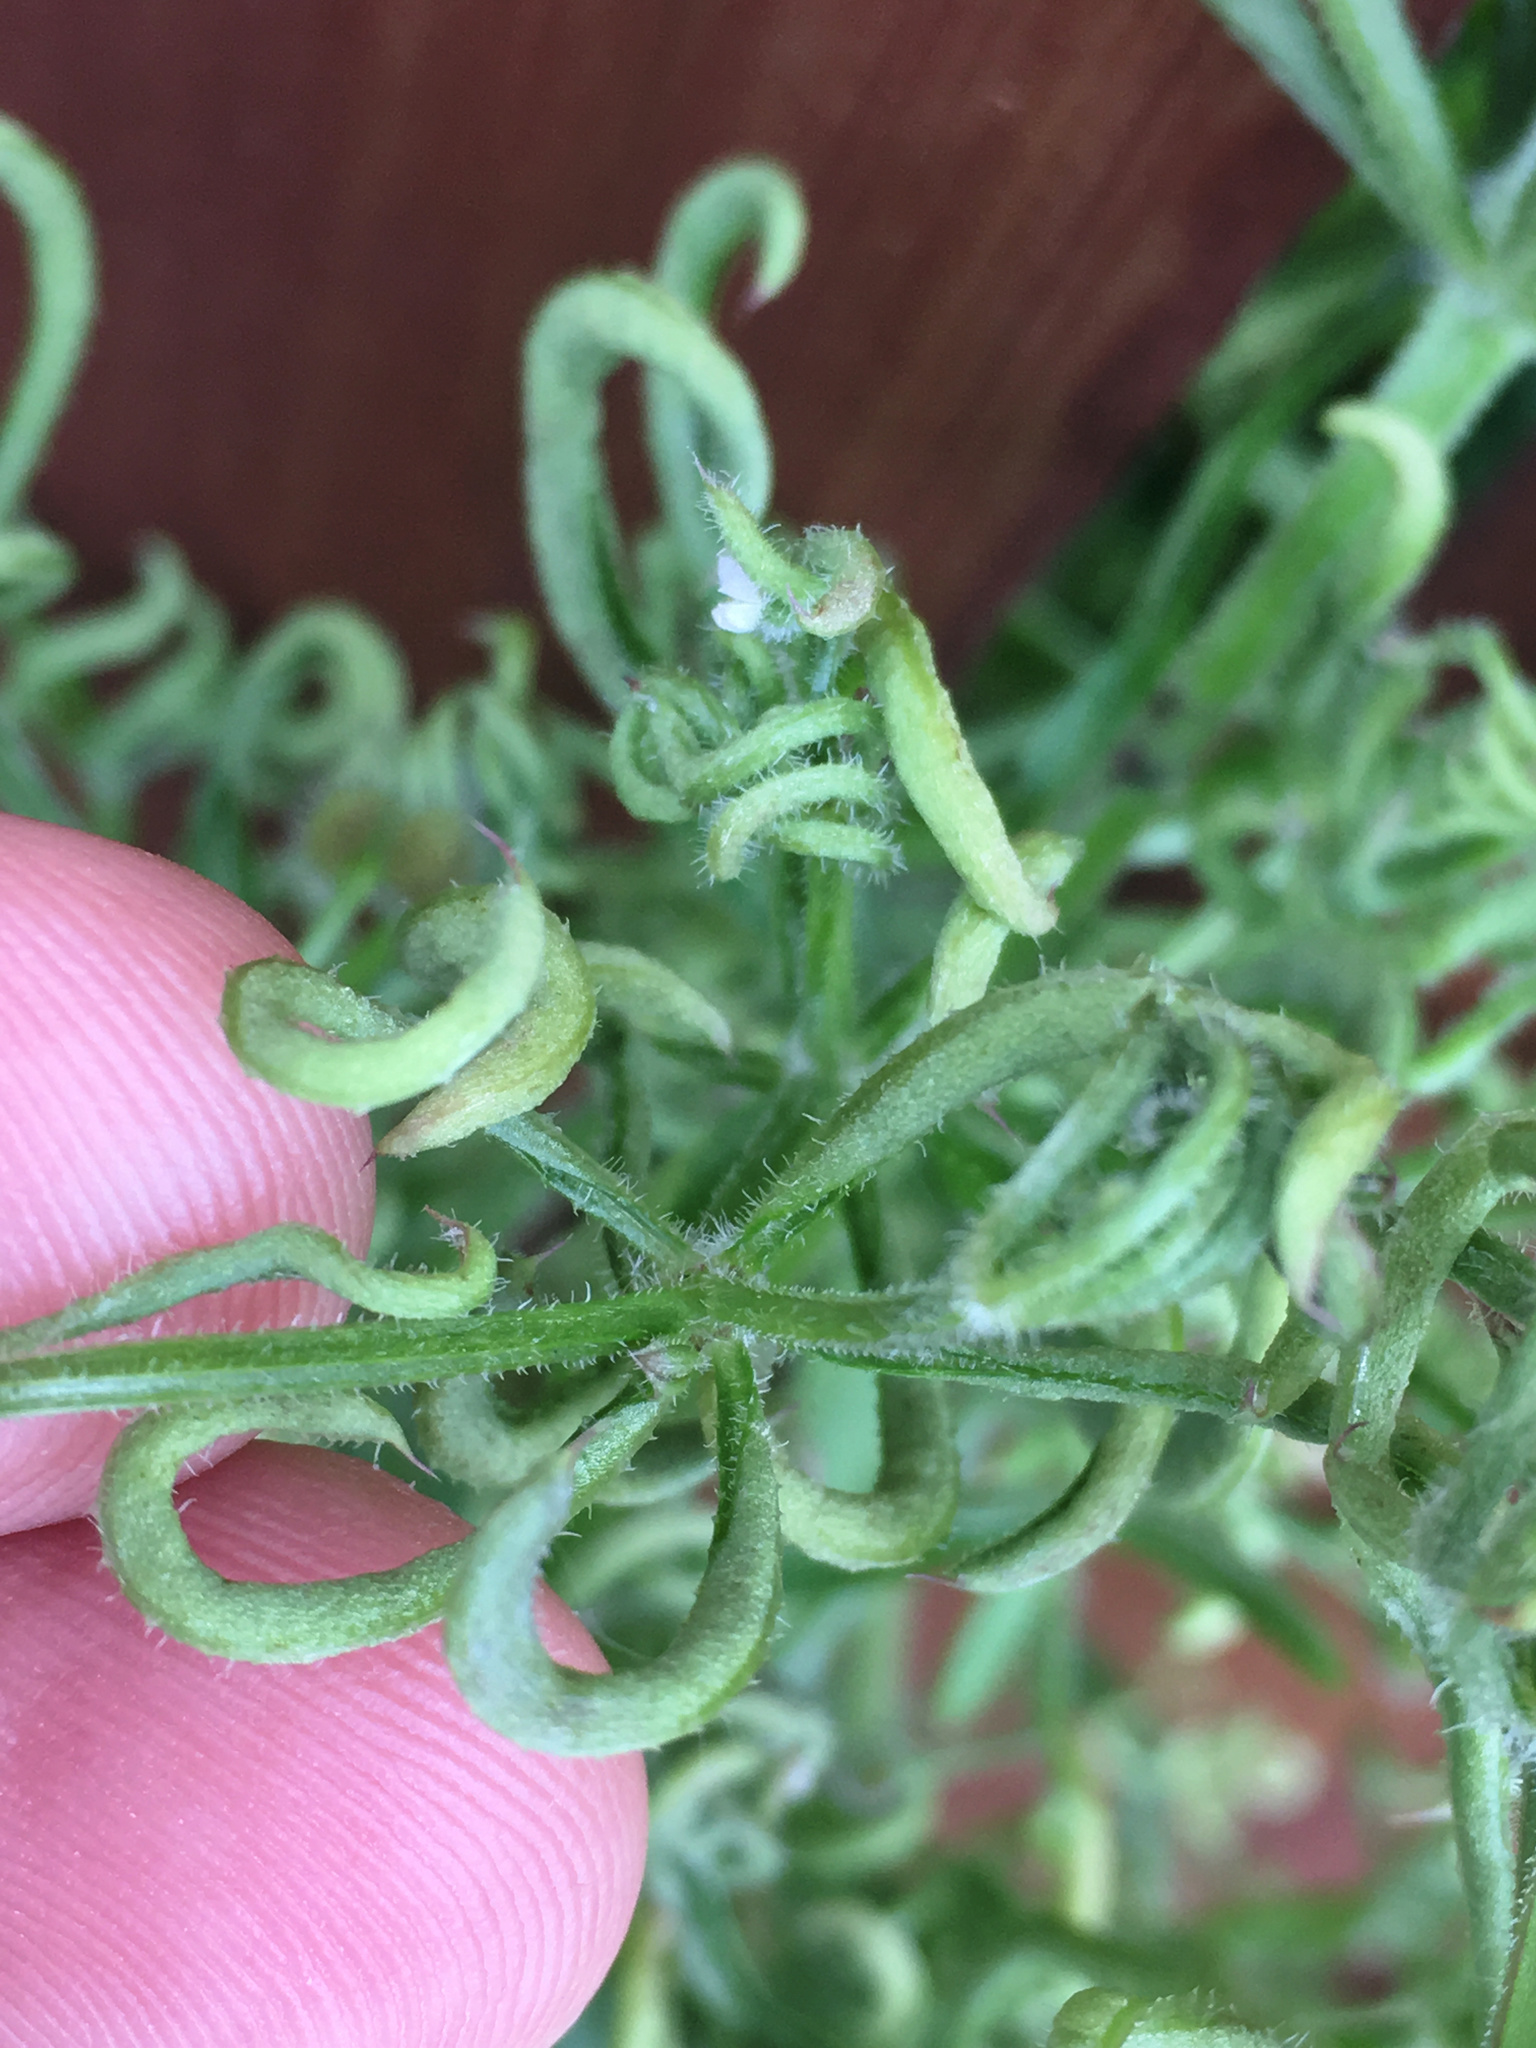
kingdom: Animalia
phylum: Arthropoda
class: Arachnida
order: Trombidiformes
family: Eriophyidae
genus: Cecidophyes
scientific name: Cecidophyes rouhollahi
